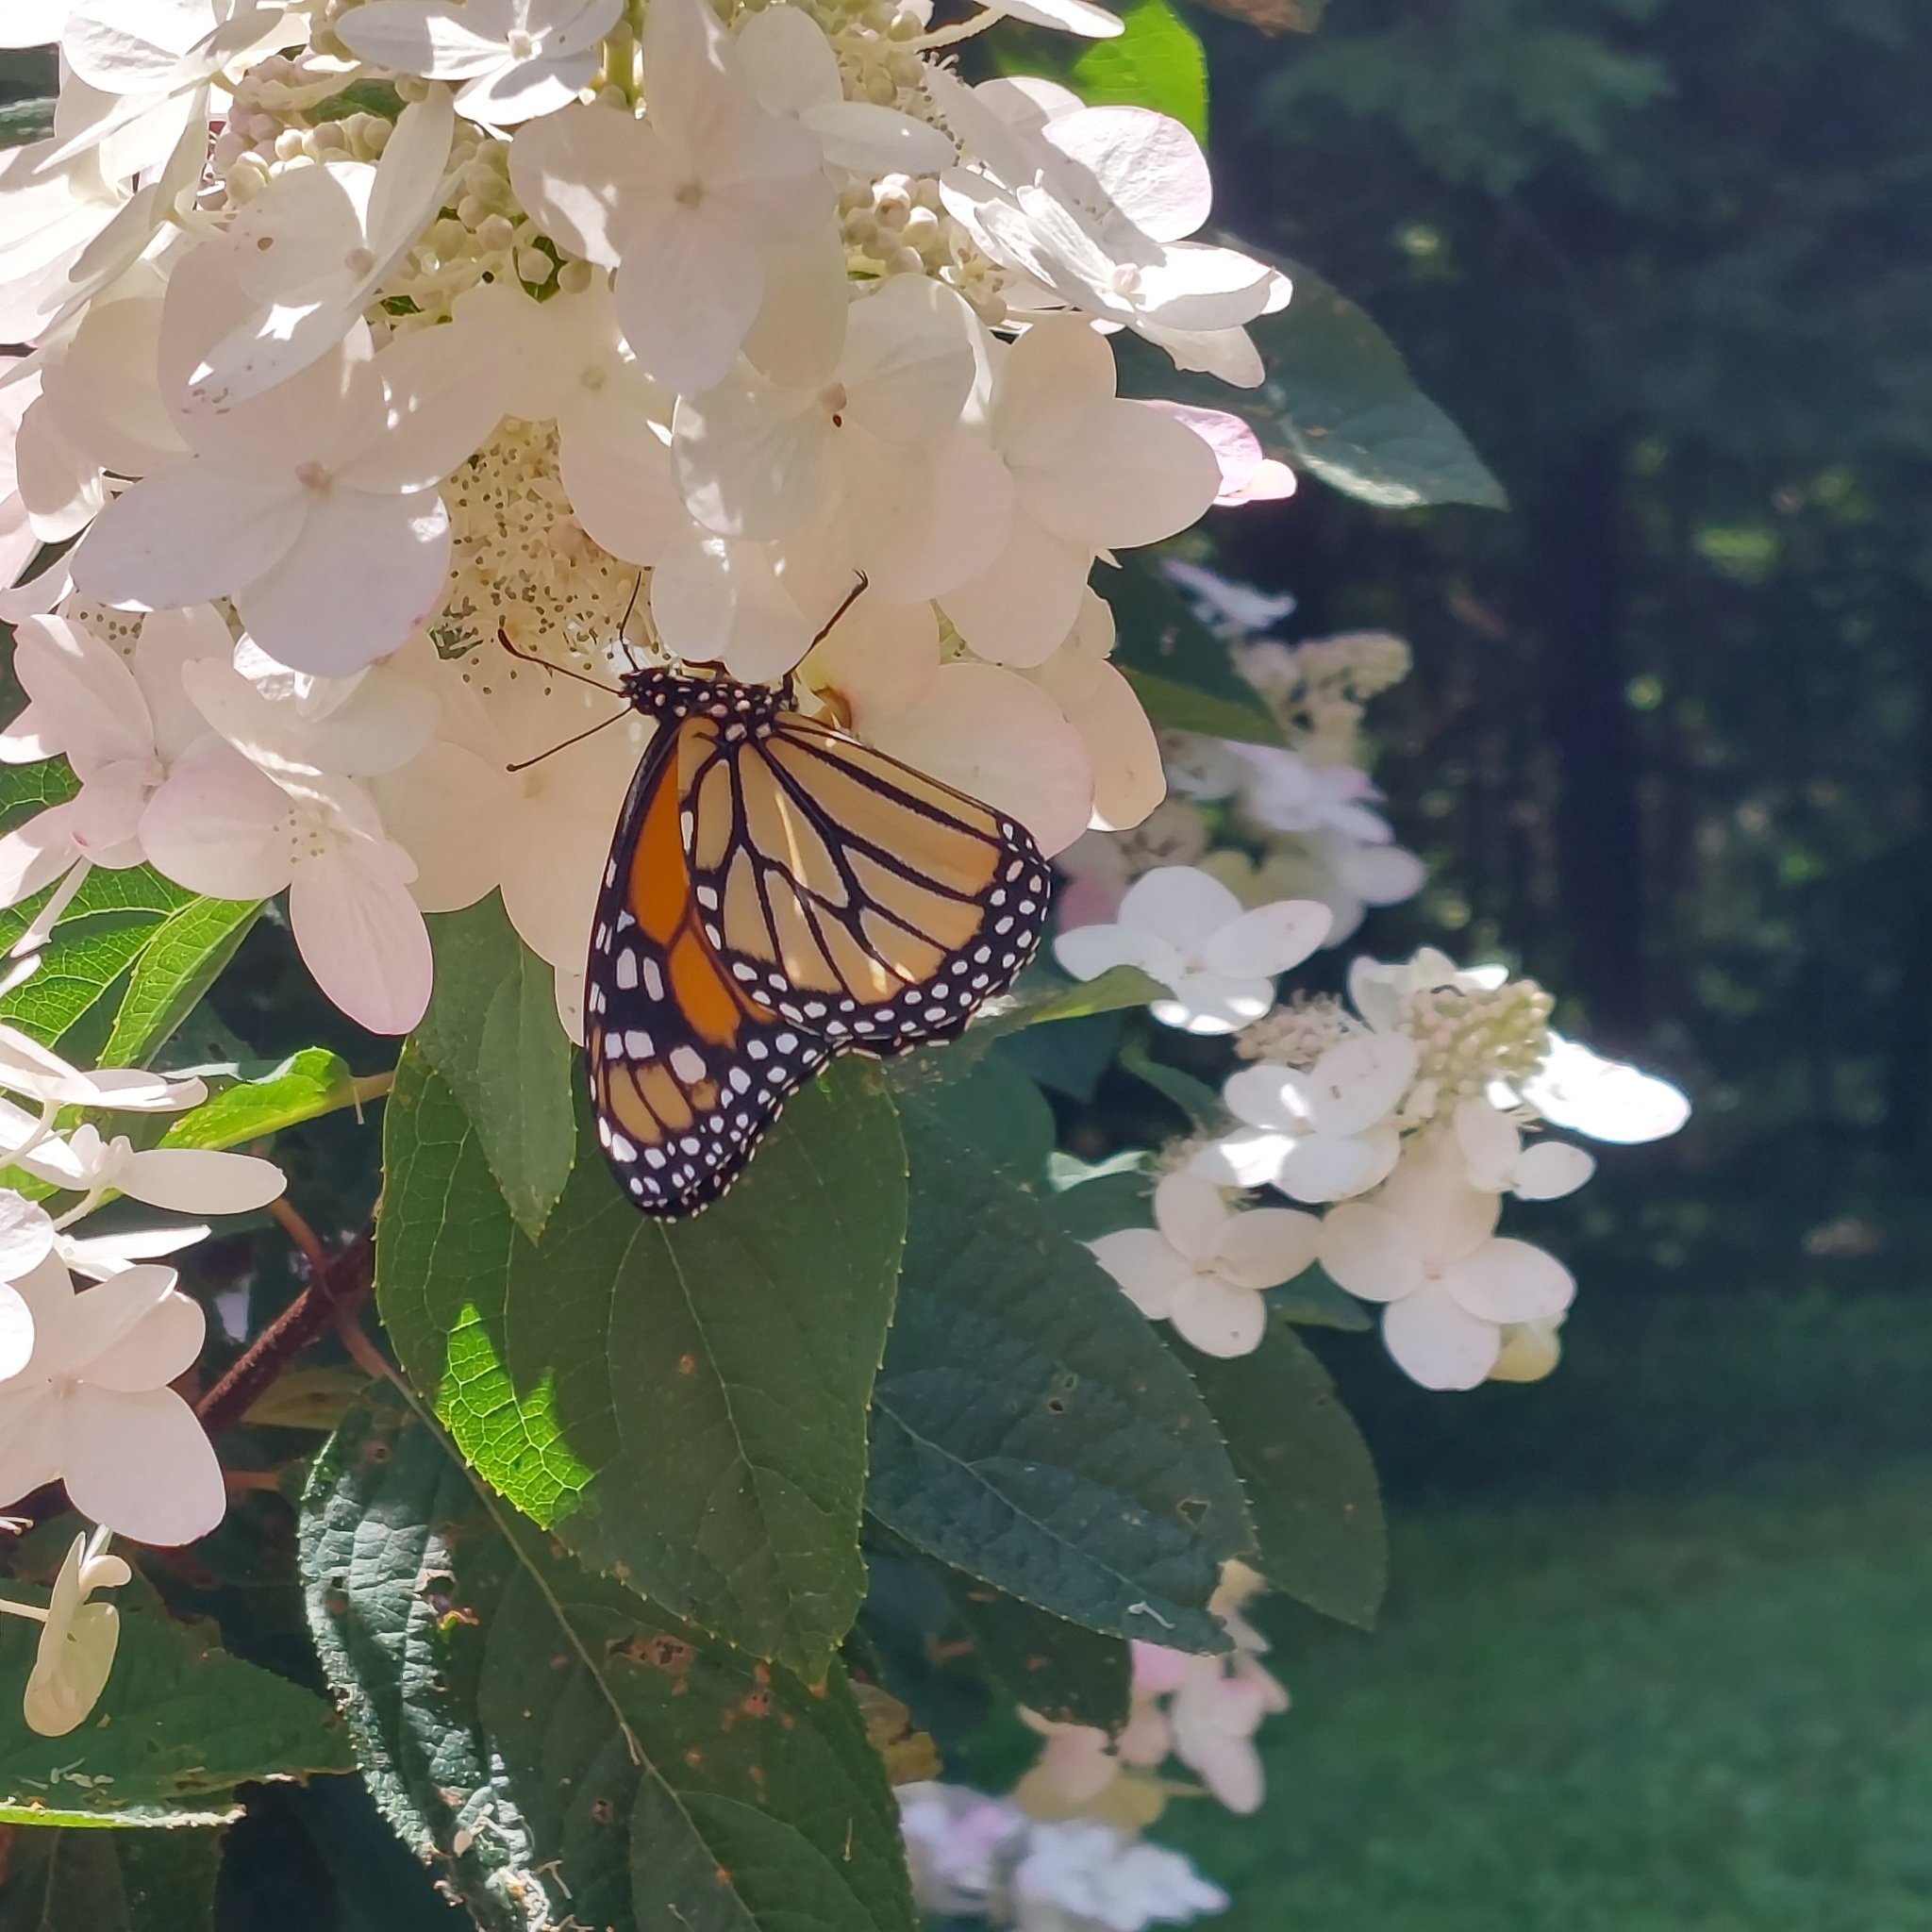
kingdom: Animalia
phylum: Arthropoda
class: Insecta
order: Lepidoptera
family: Nymphalidae
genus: Danaus
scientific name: Danaus plexippus
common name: Monarch
